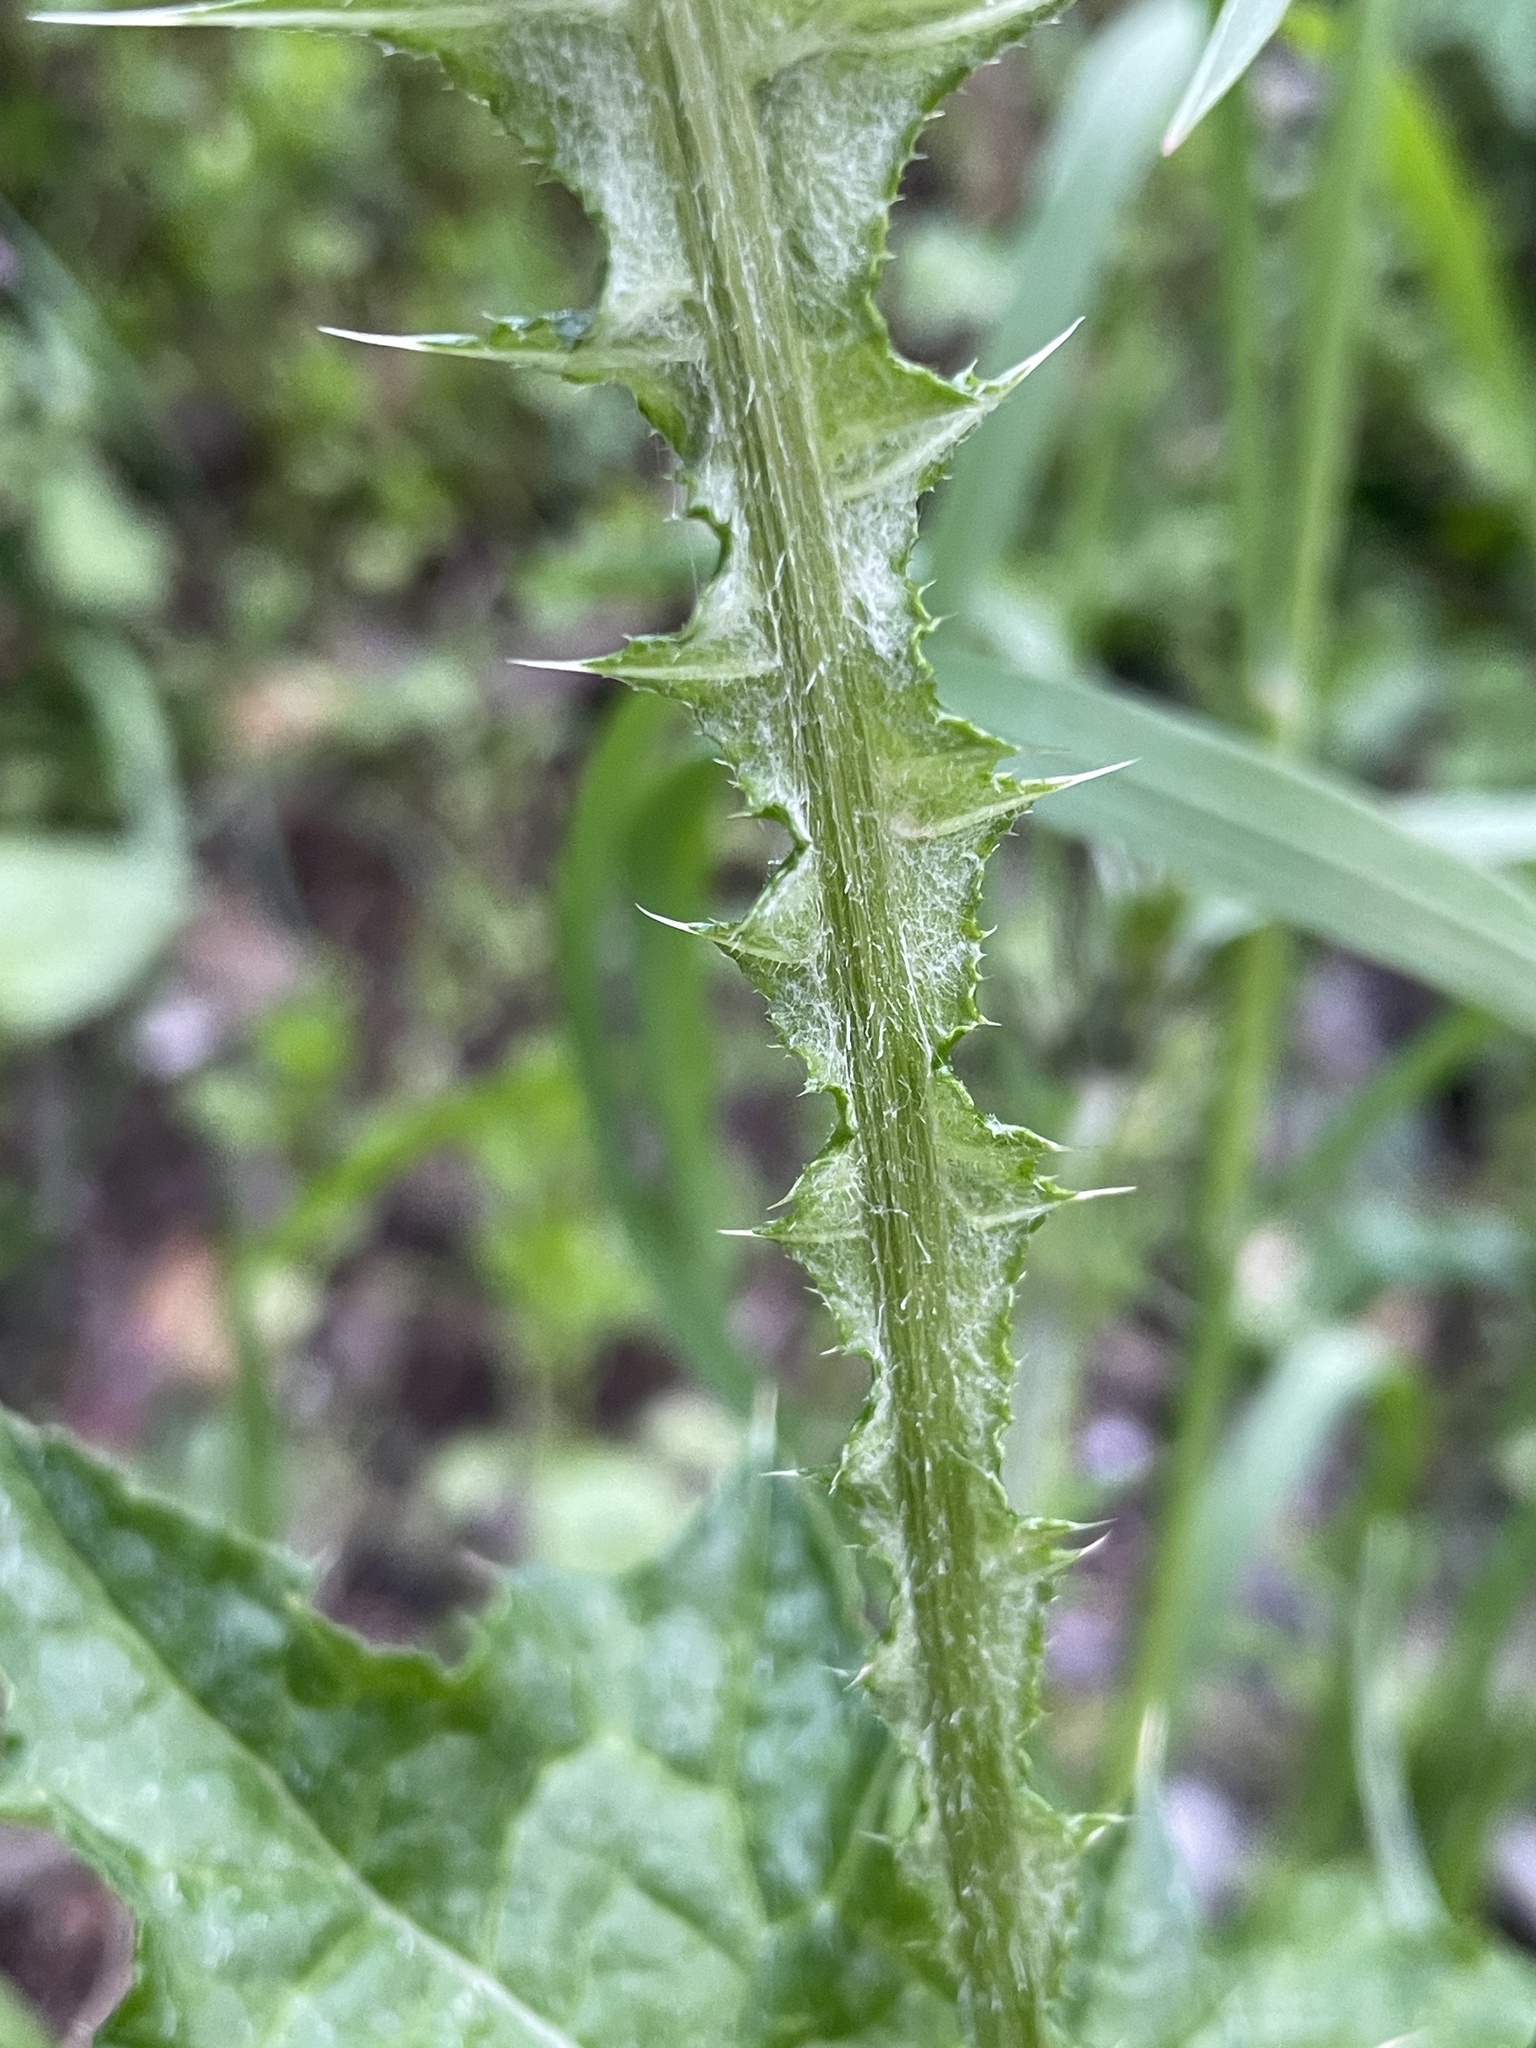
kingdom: Plantae
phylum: Tracheophyta
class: Magnoliopsida
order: Asterales
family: Asteraceae
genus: Carduus
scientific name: Carduus pycnocephalus
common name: Plymouth thistle
